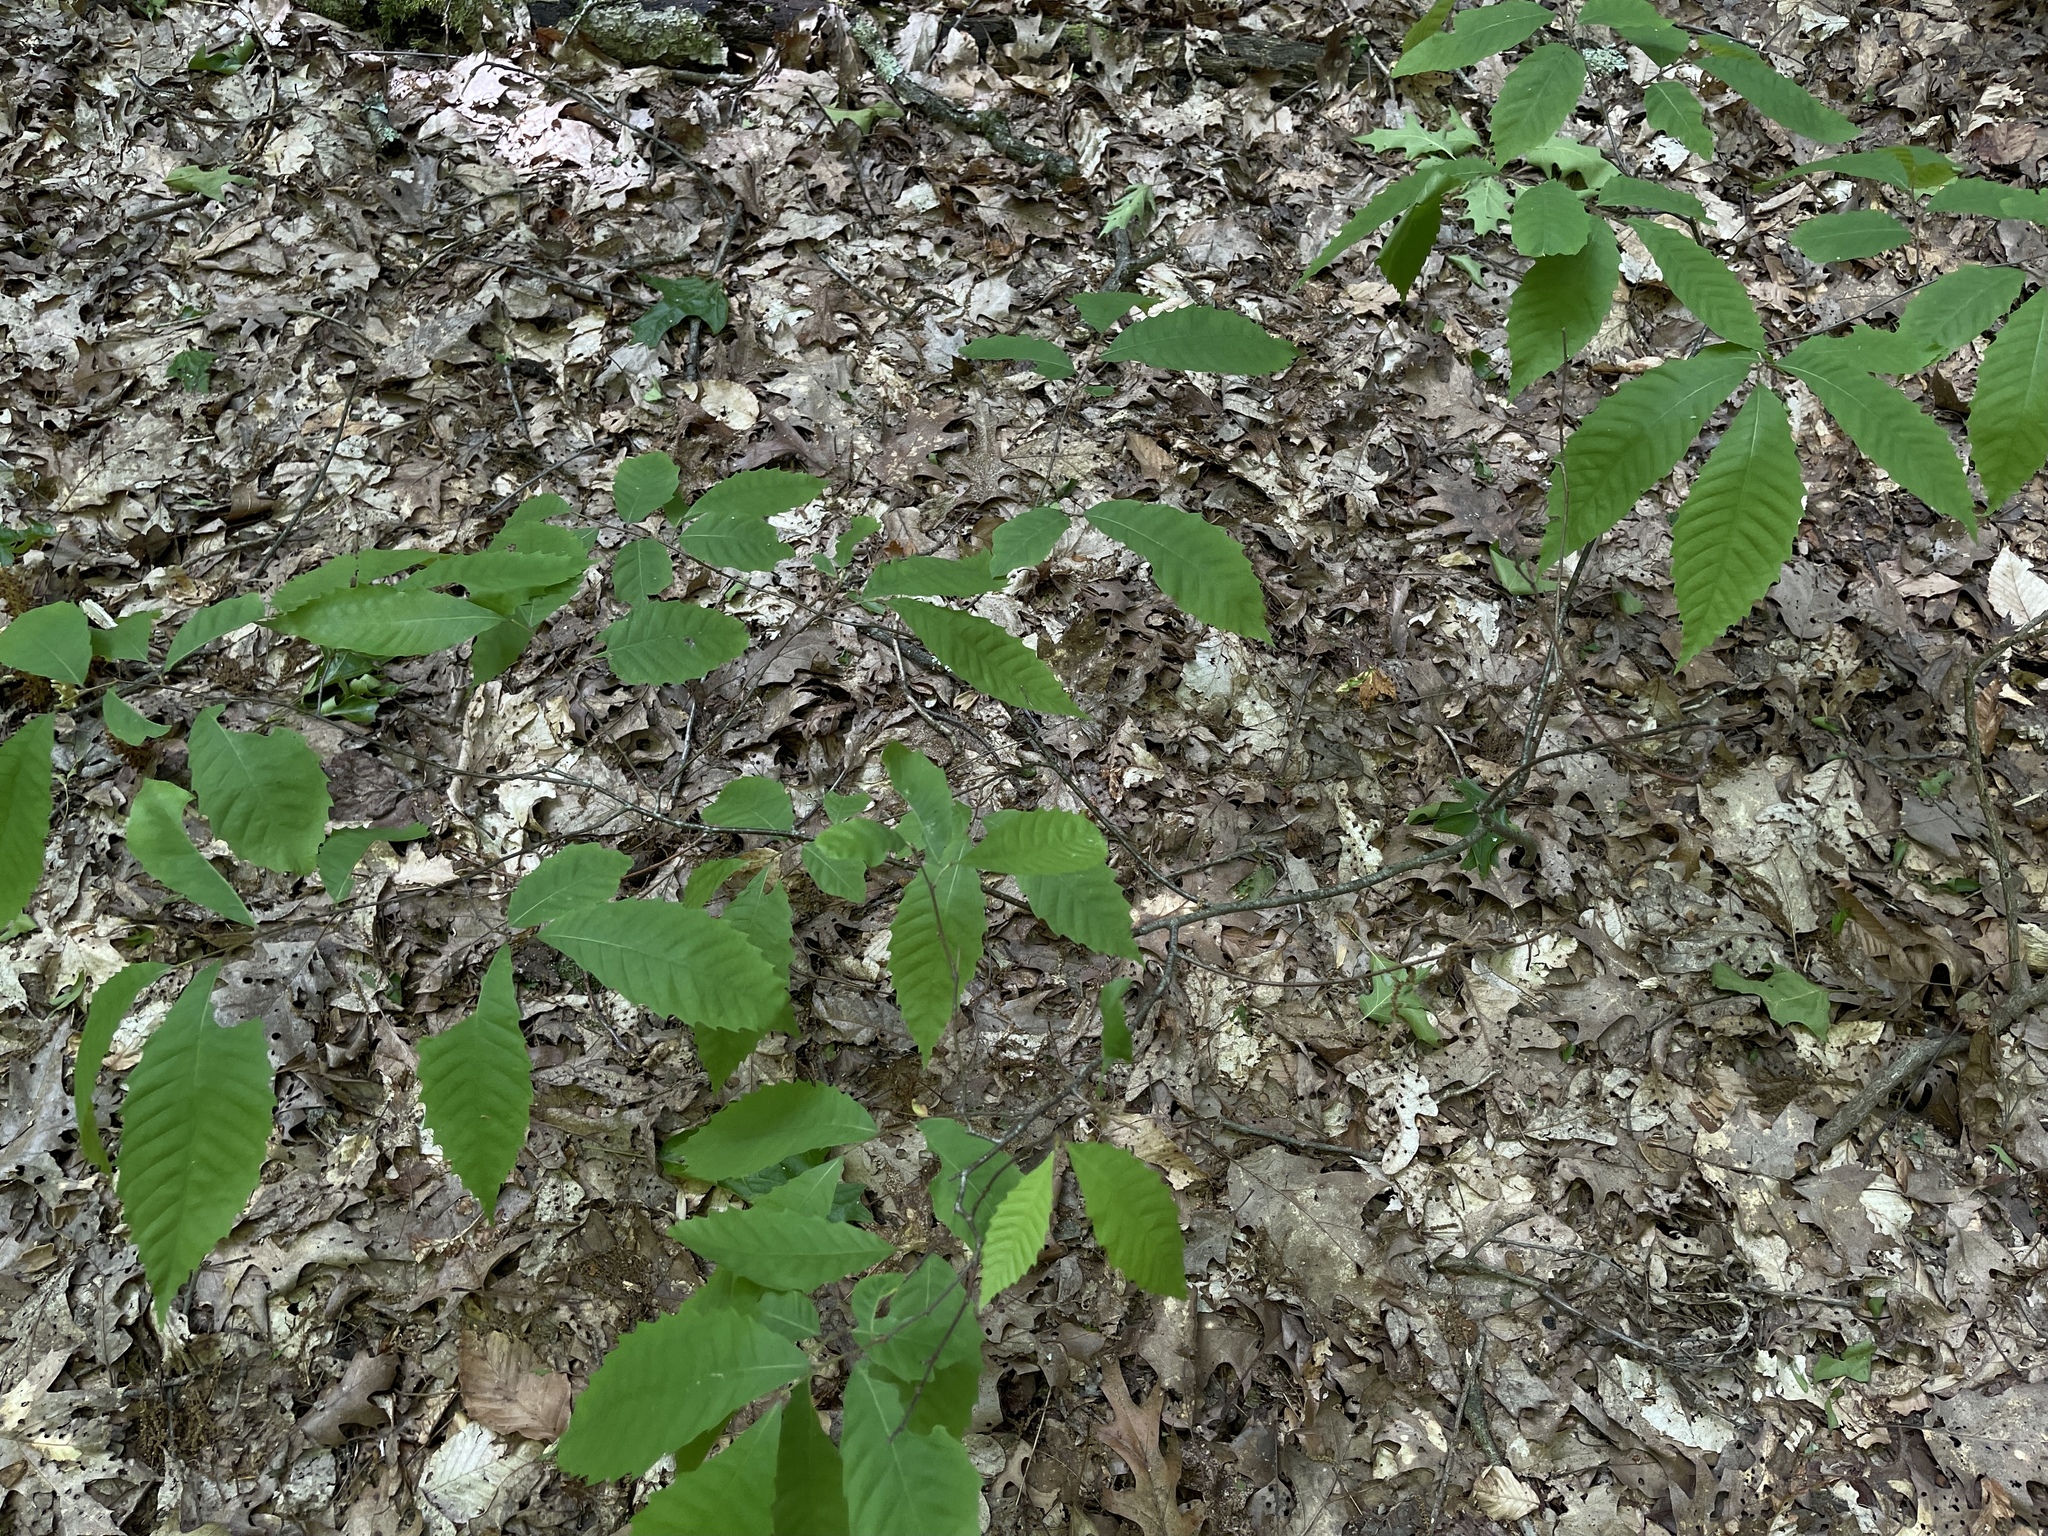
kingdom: Plantae
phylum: Tracheophyta
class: Magnoliopsida
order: Fagales
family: Fagaceae
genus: Castanea
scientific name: Castanea dentata
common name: American chestnut
